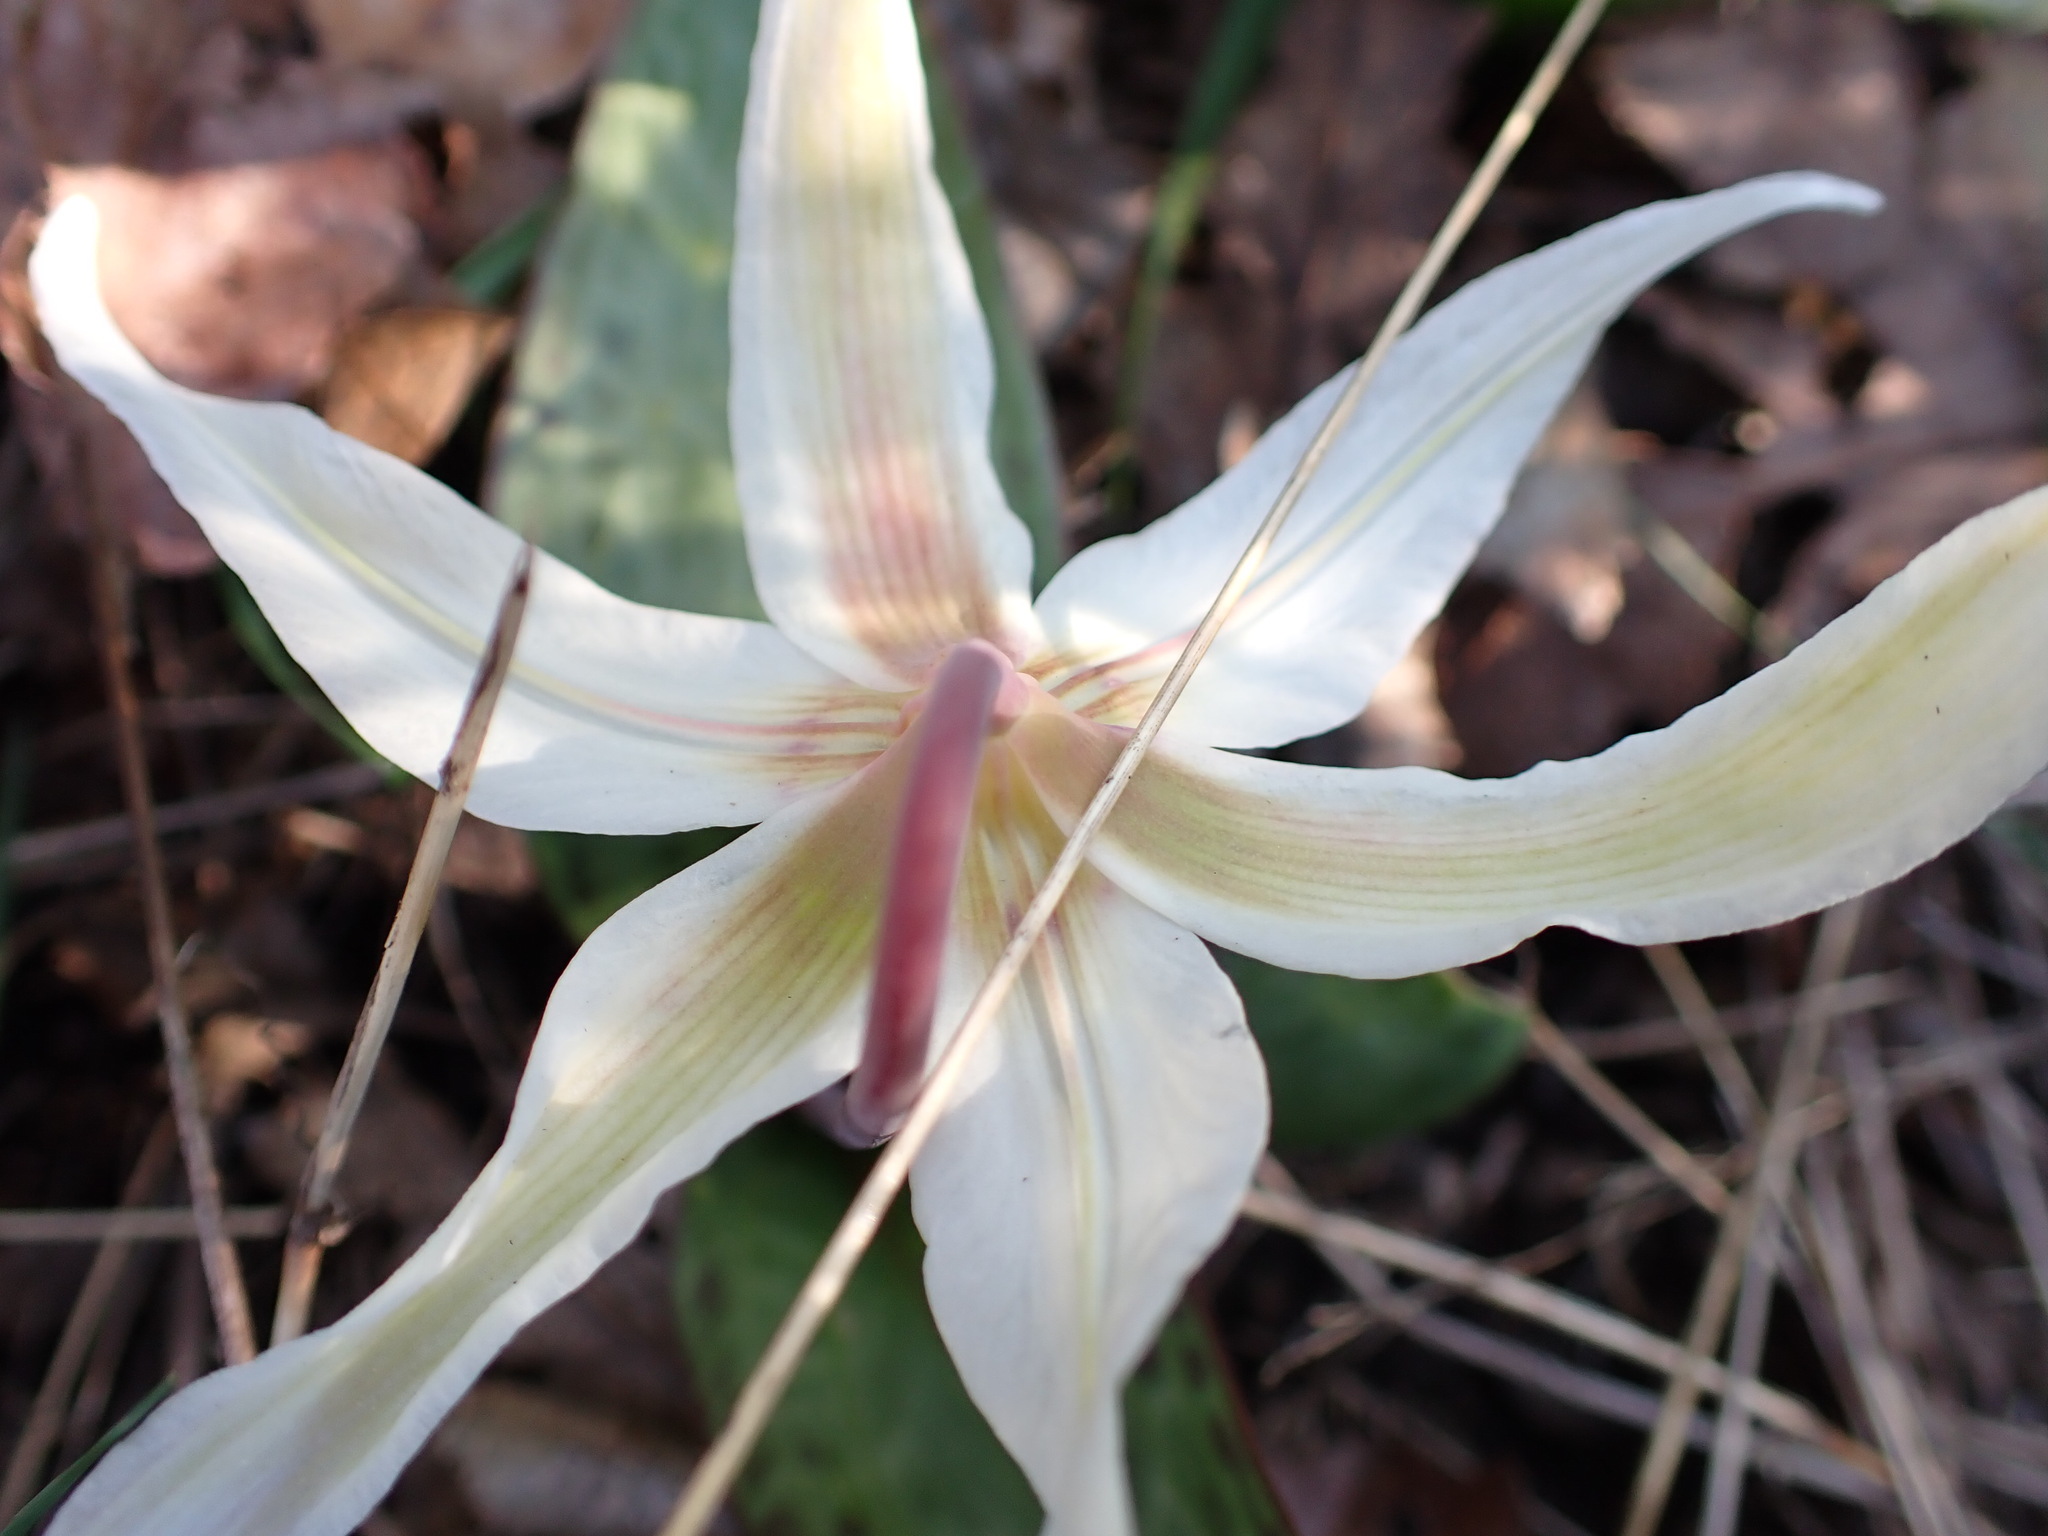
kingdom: Plantae
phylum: Tracheophyta
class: Liliopsida
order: Liliales
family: Liliaceae
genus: Erythronium
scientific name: Erythronium oregonum
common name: Giant adder's-tongue
